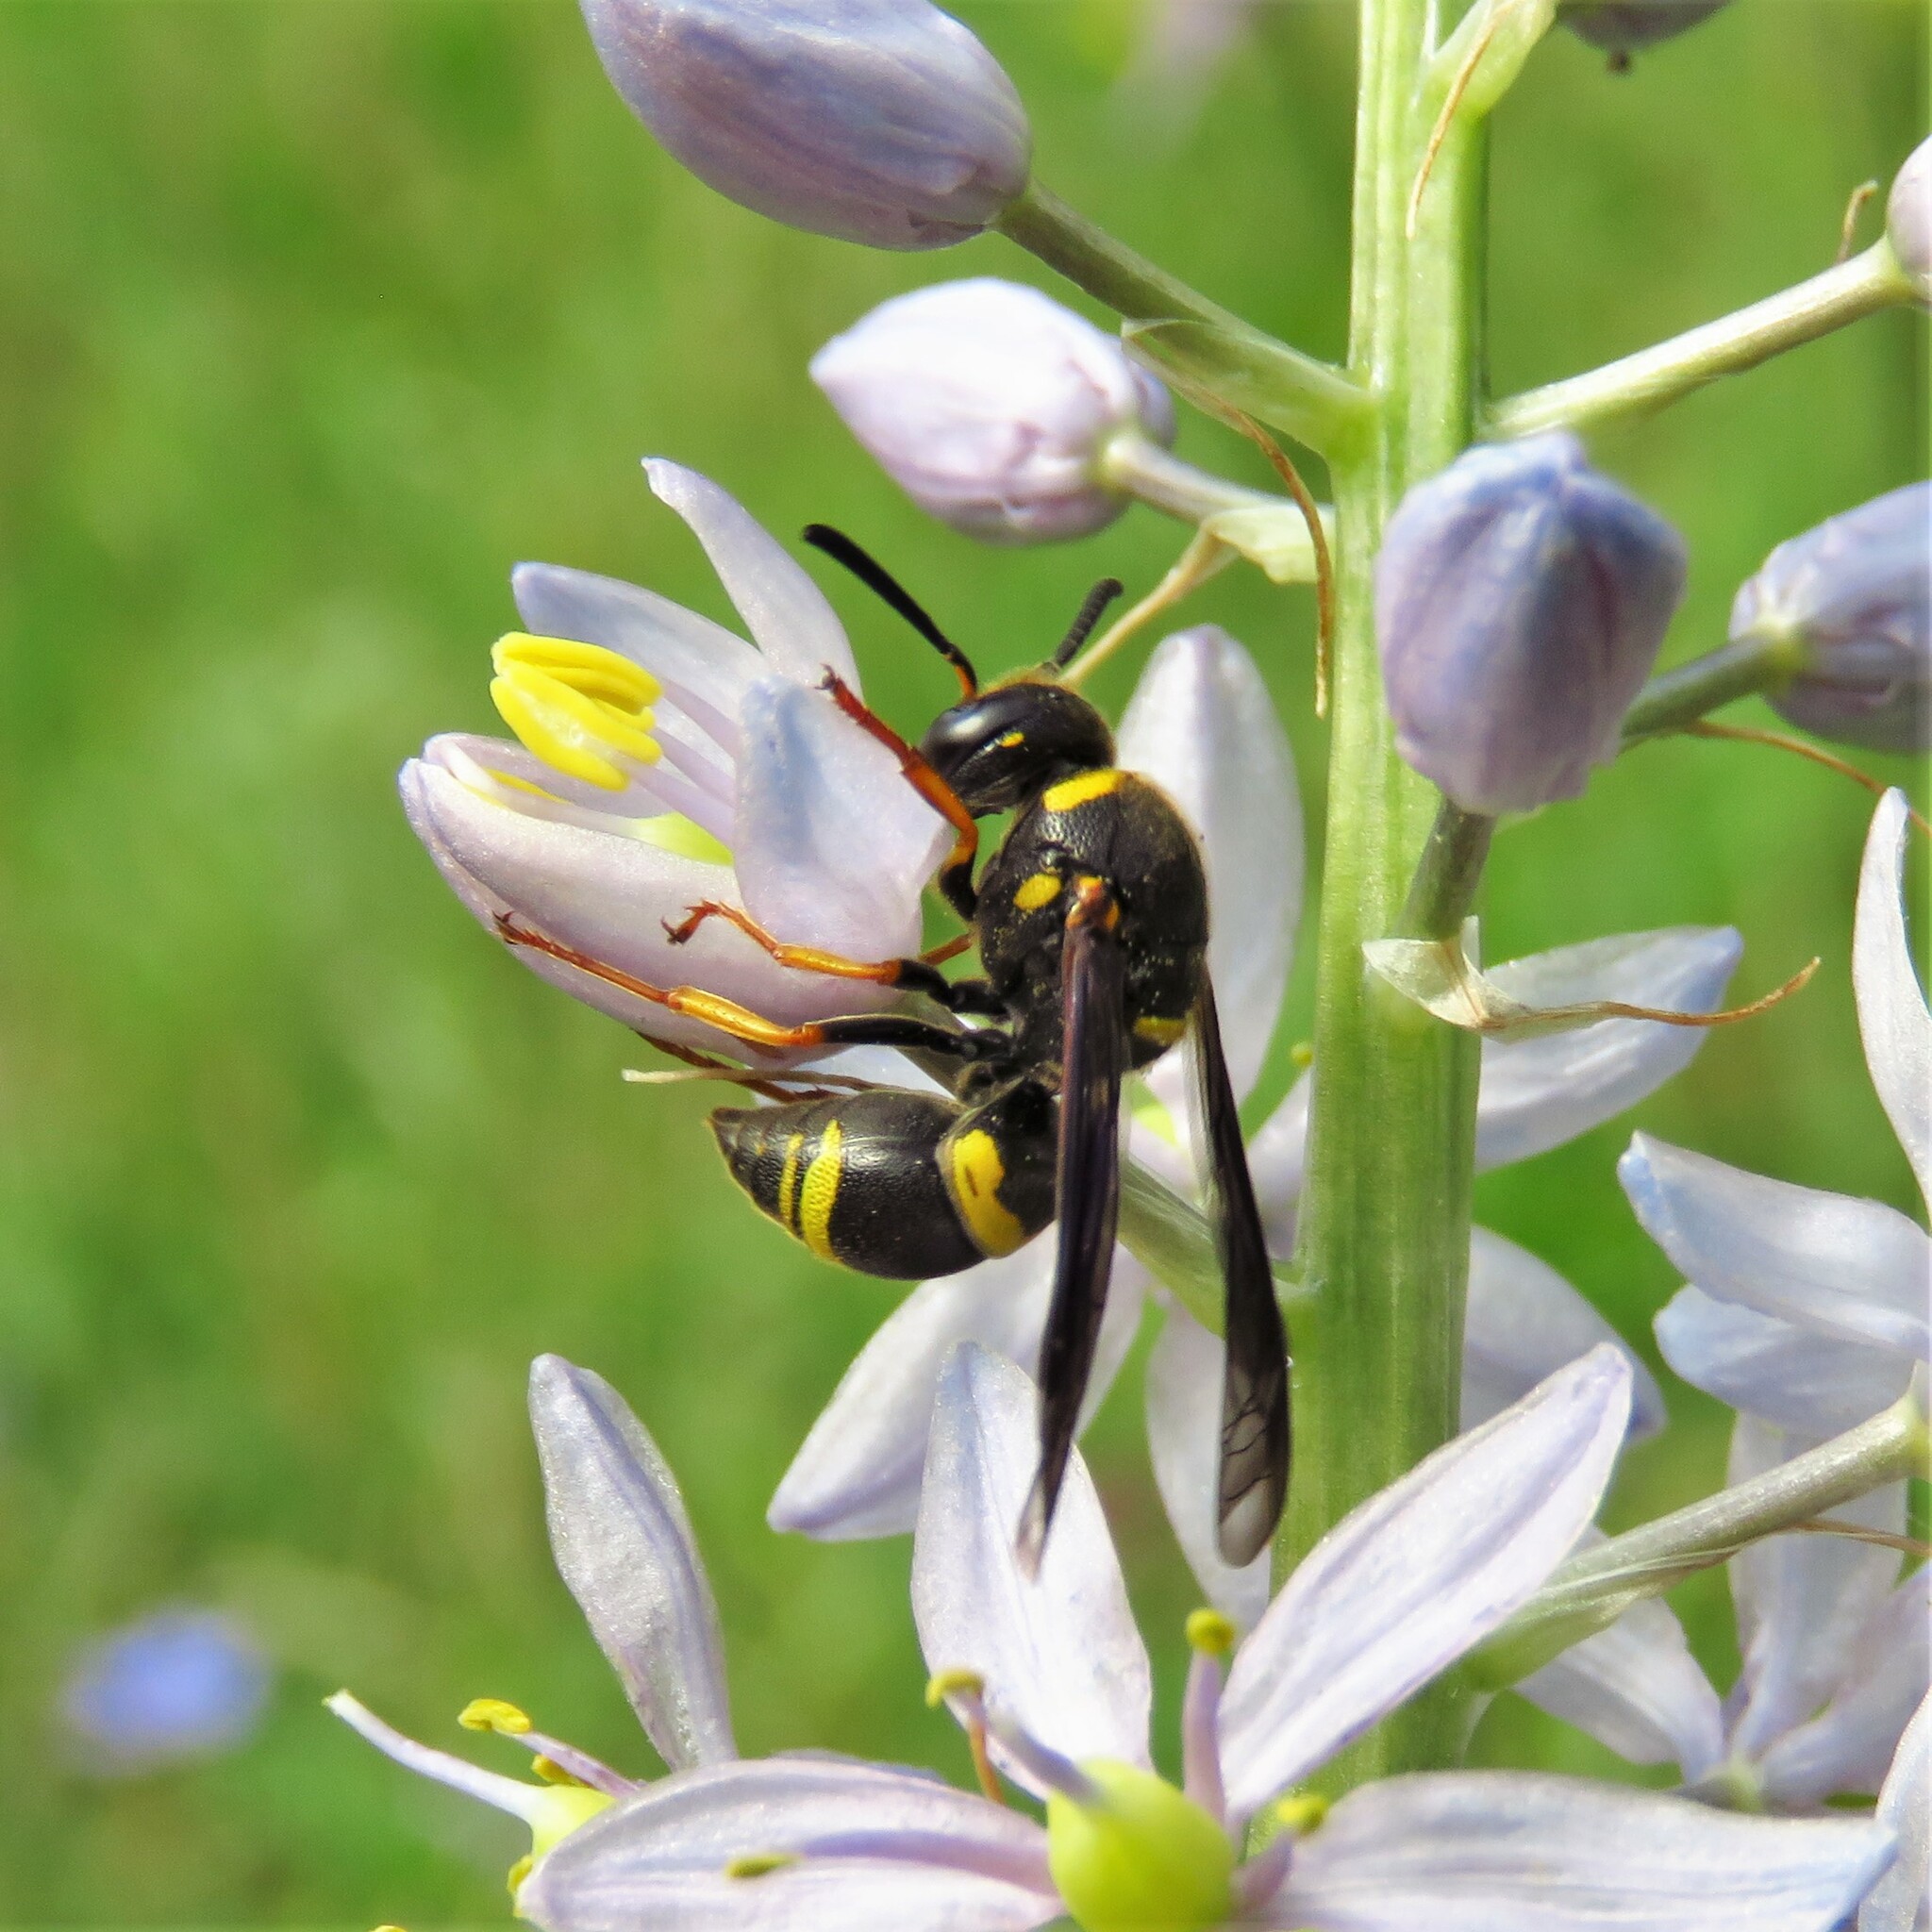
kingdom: Animalia
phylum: Arthropoda
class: Insecta
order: Hymenoptera
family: Eumenidae
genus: Euodynerus
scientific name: Euodynerus foraminatus
